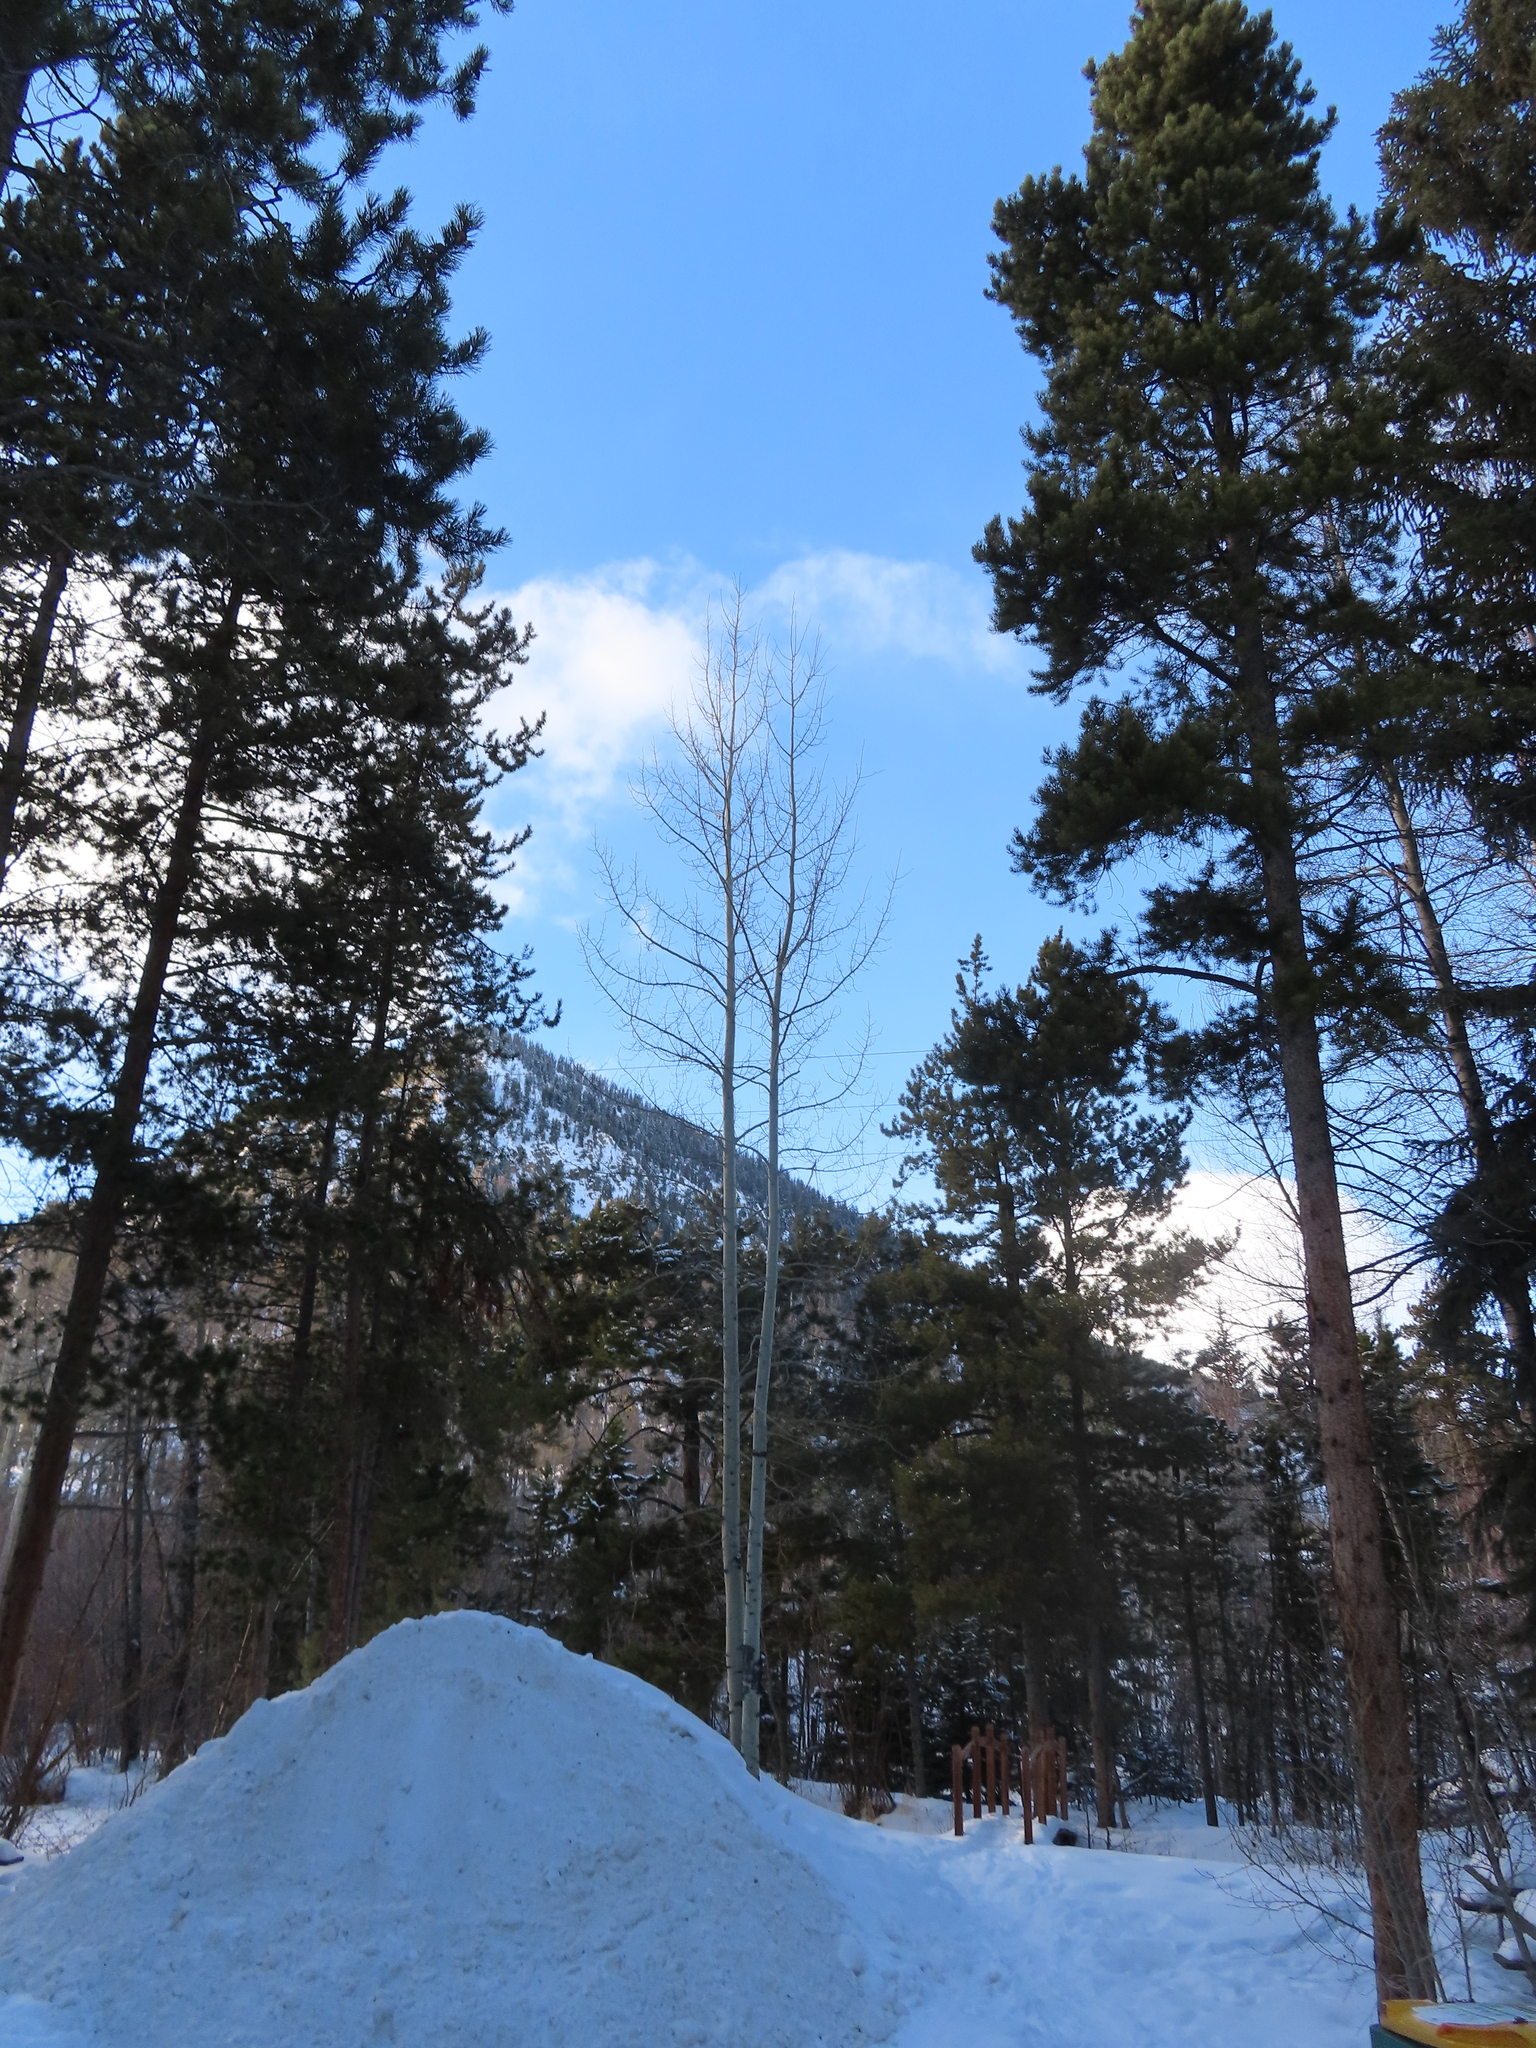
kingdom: Plantae
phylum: Tracheophyta
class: Magnoliopsida
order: Malpighiales
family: Salicaceae
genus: Populus
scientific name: Populus tremuloides
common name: Quaking aspen
